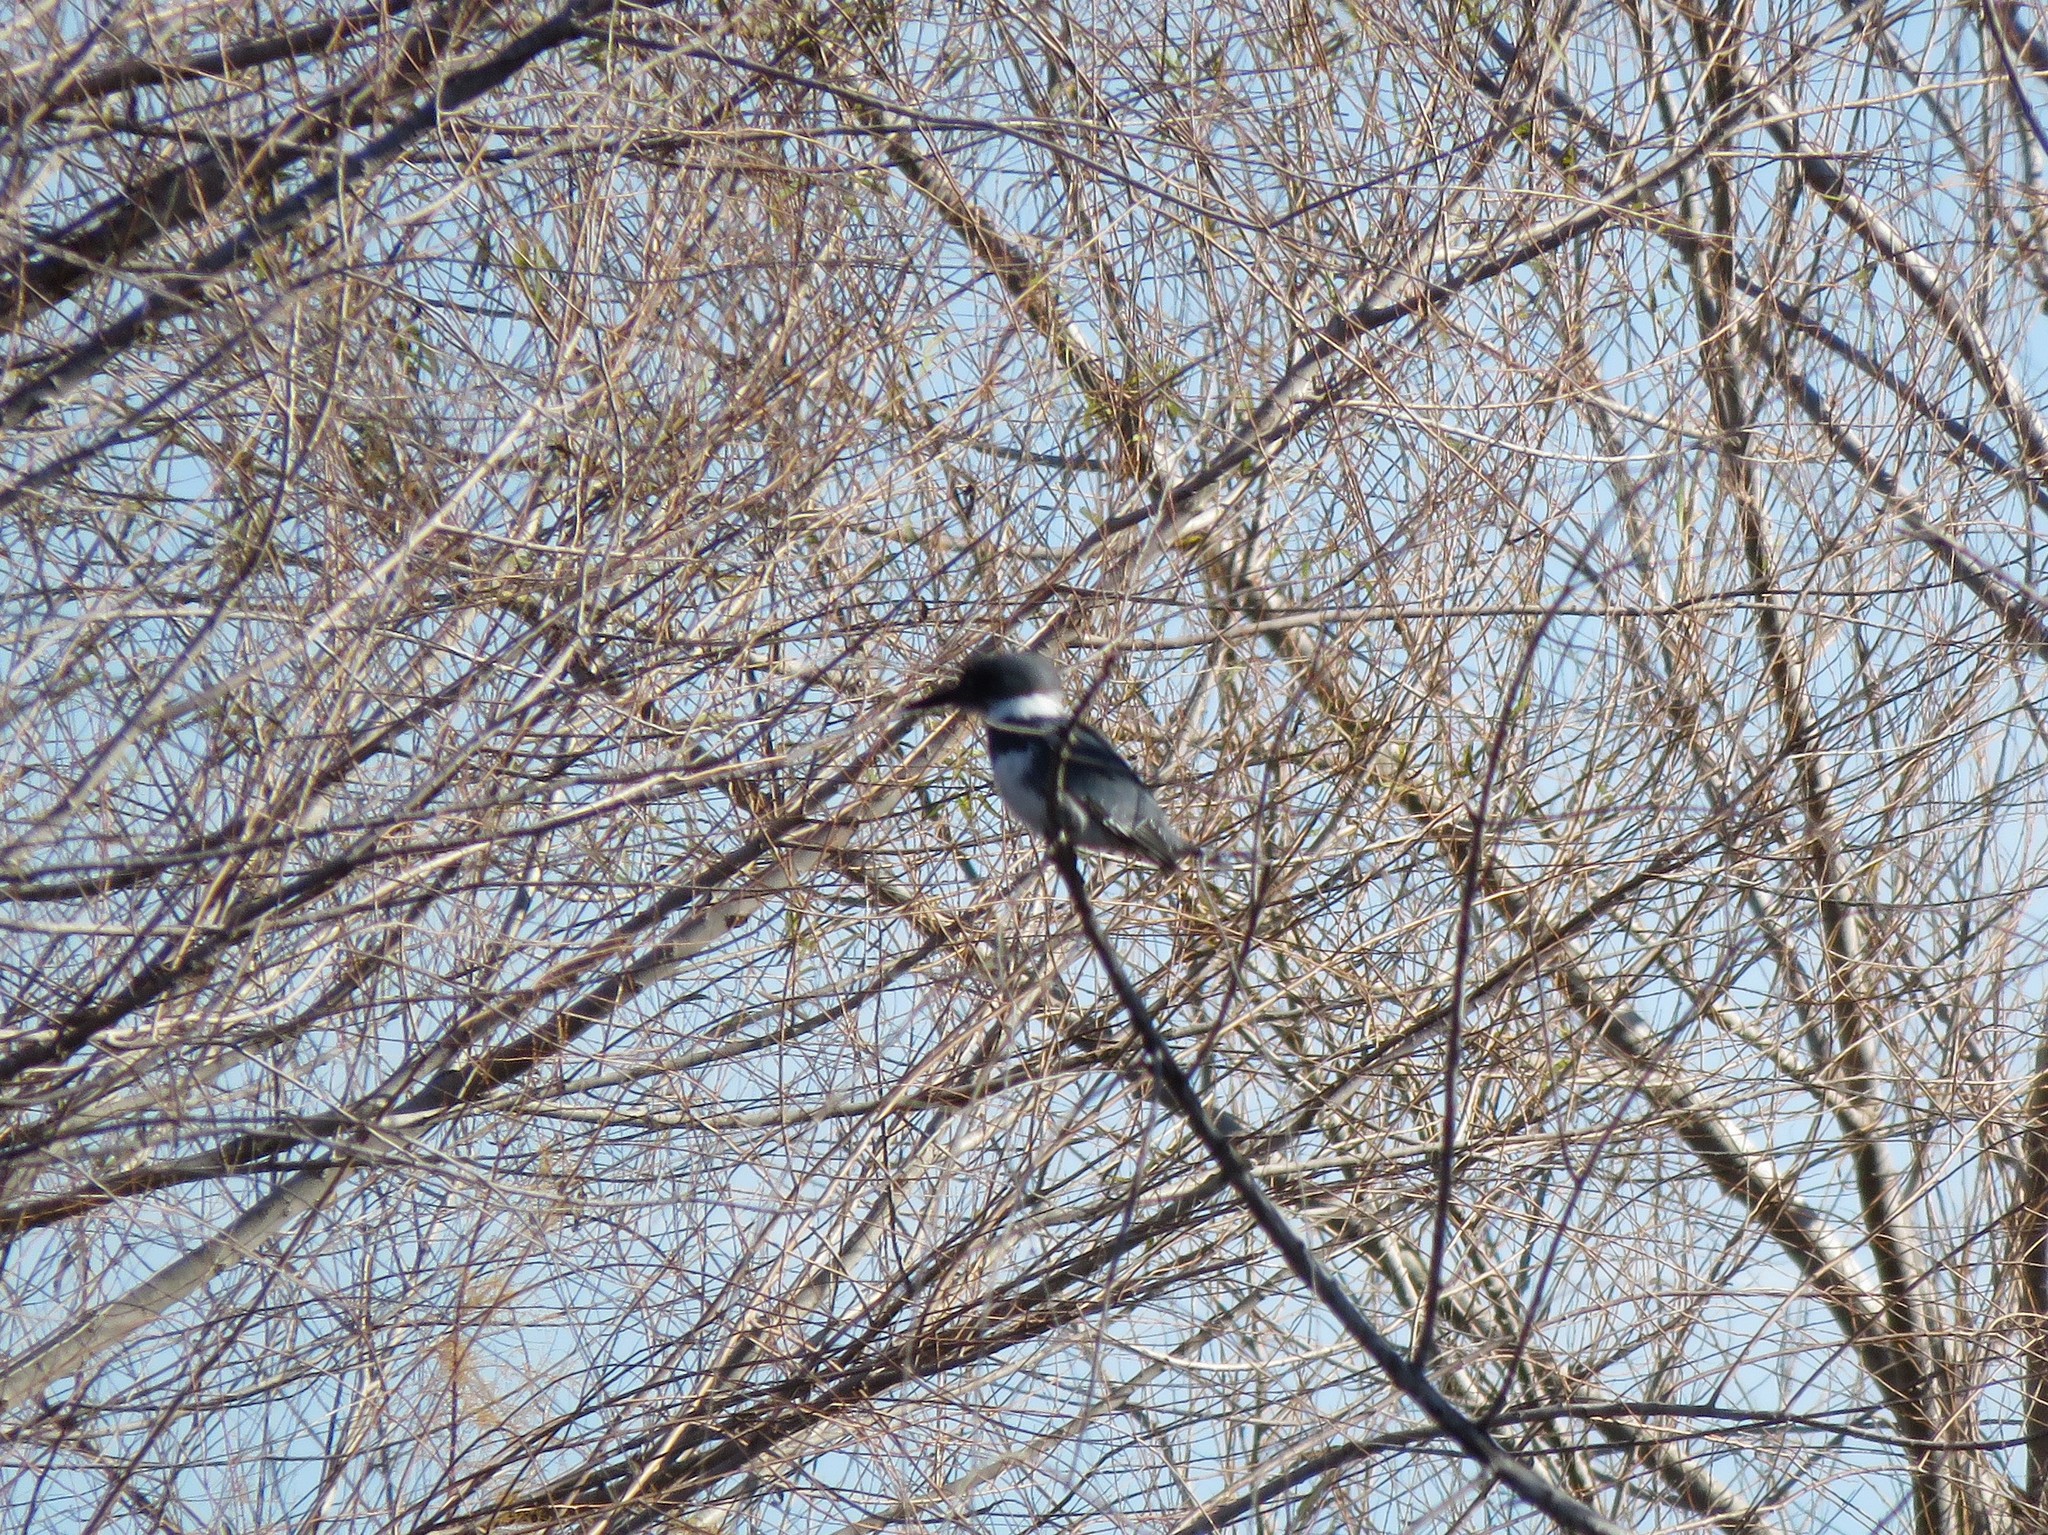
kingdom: Animalia
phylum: Chordata
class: Aves
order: Coraciiformes
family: Alcedinidae
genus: Megaceryle
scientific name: Megaceryle alcyon
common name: Belted kingfisher
